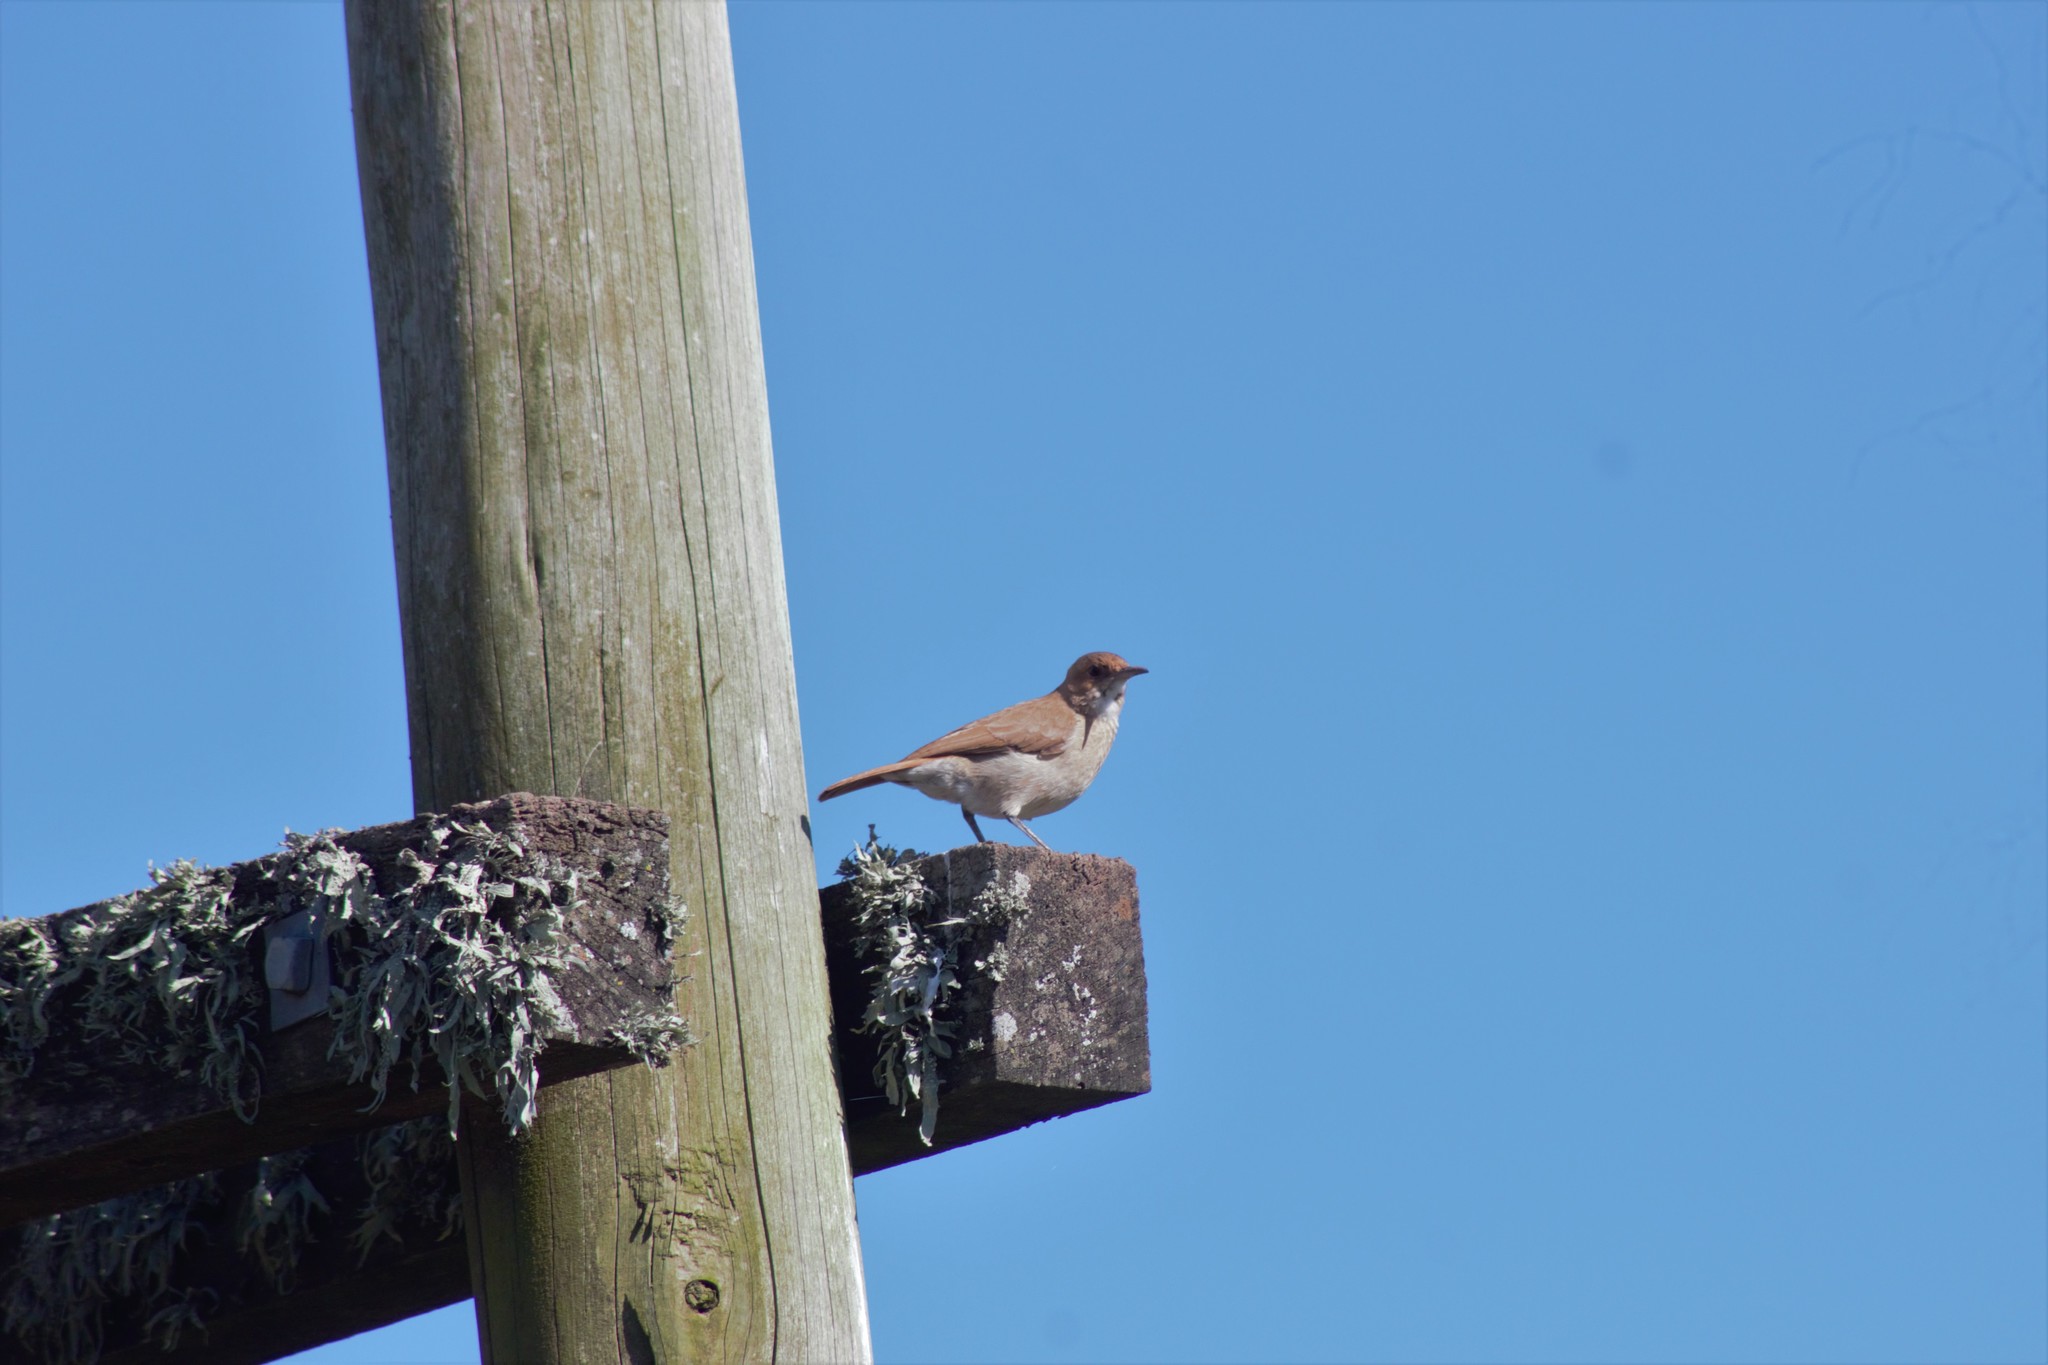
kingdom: Animalia
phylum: Chordata
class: Aves
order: Passeriformes
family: Furnariidae
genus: Furnarius
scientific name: Furnarius rufus
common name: Rufous hornero
